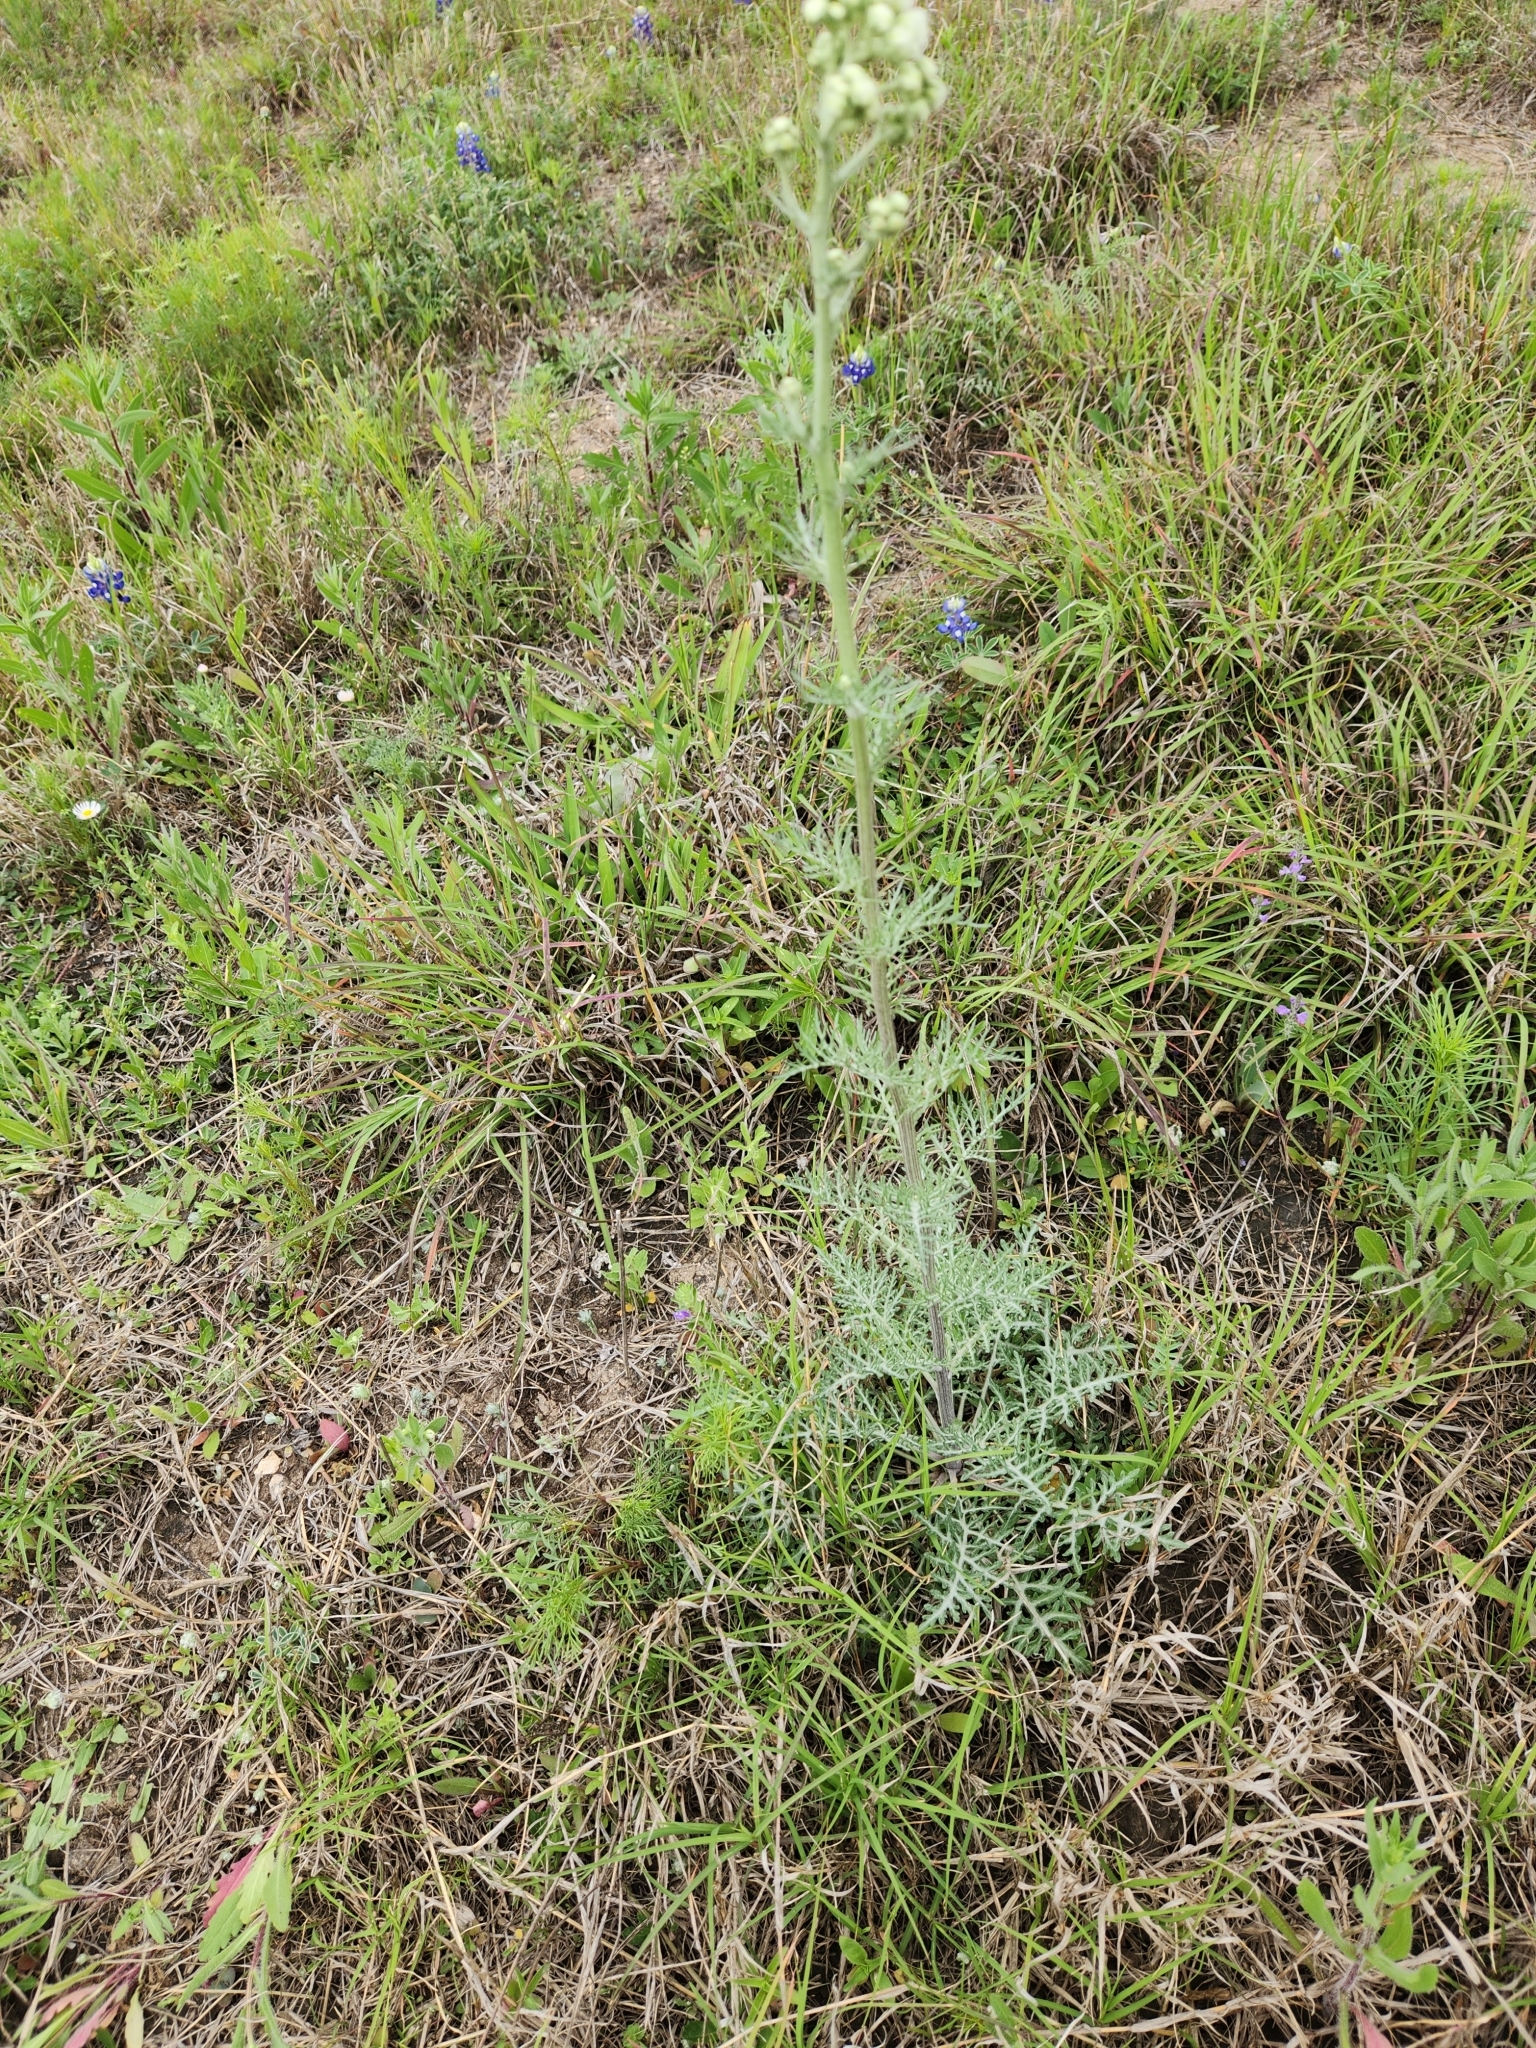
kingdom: Plantae
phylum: Tracheophyta
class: Magnoliopsida
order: Asterales
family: Asteraceae
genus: Hymenopappus
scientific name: Hymenopappus scabiosaeus
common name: Carolina woollywhite
